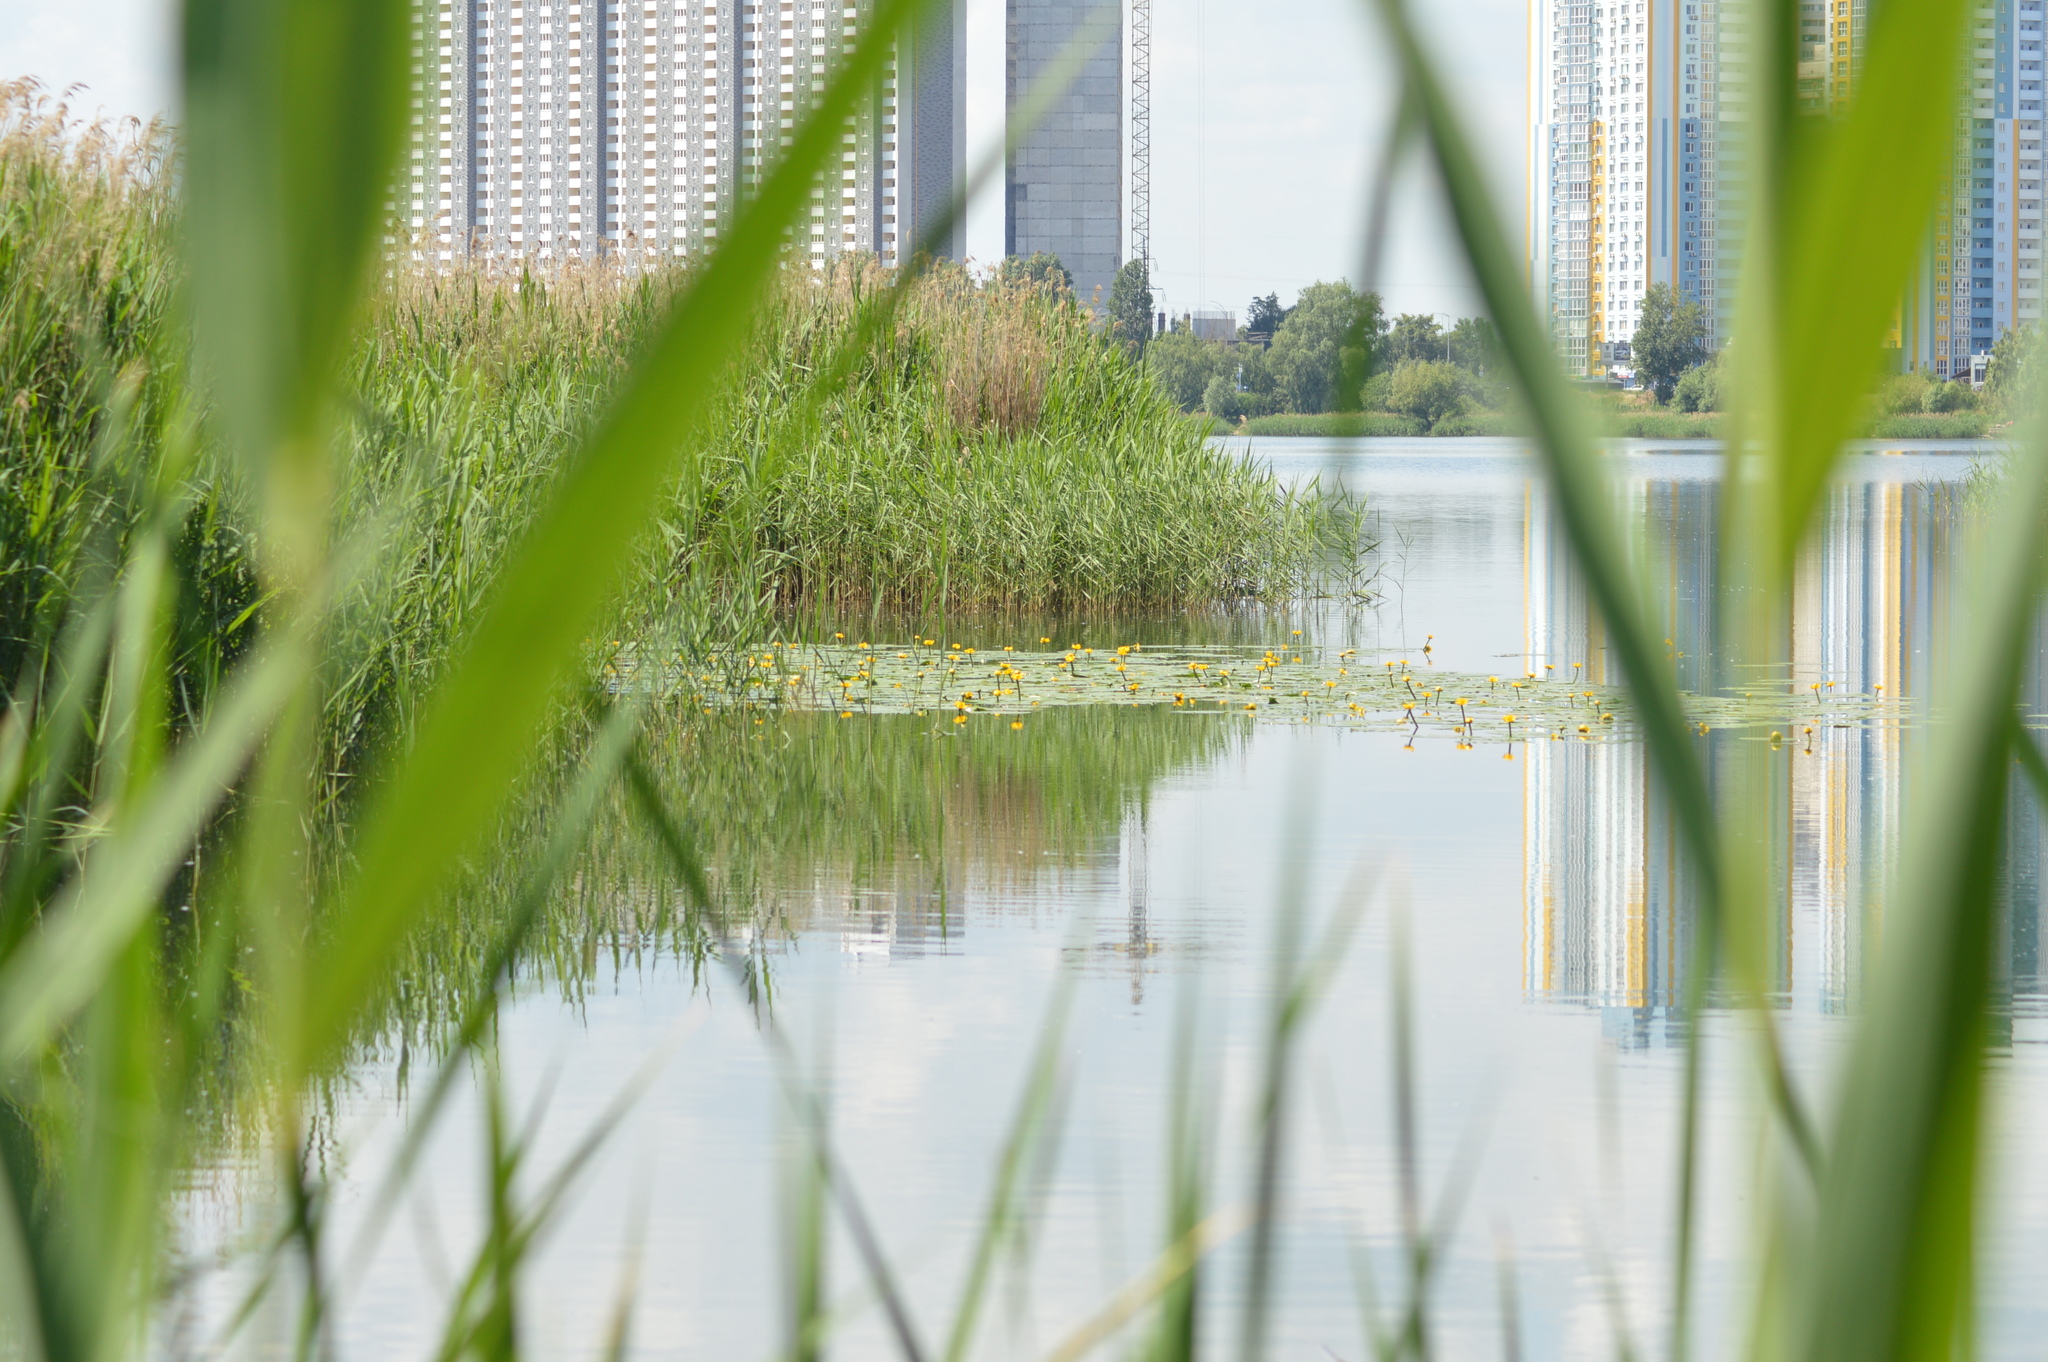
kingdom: Plantae
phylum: Tracheophyta
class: Magnoliopsida
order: Nymphaeales
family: Nymphaeaceae
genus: Nuphar
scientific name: Nuphar lutea
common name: Yellow water-lily
